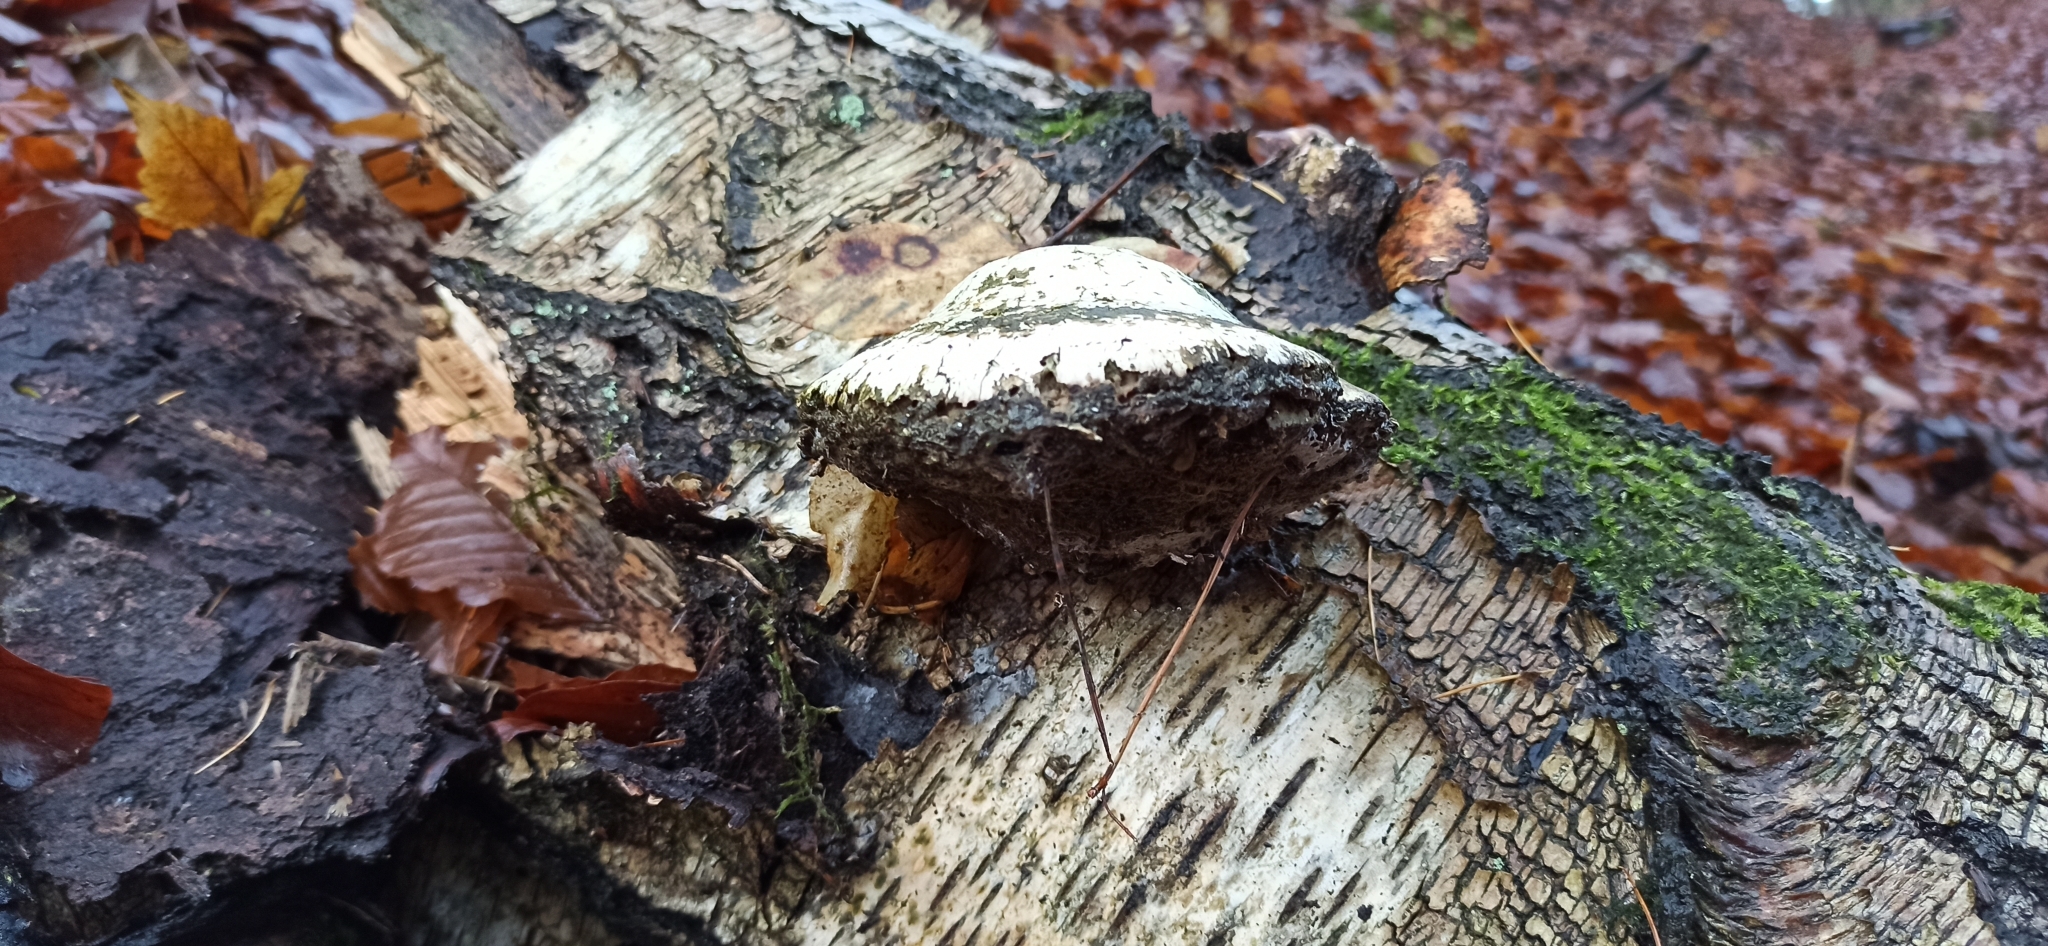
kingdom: Fungi
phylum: Basidiomycota
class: Agaricomycetes
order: Polyporales
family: Fomitopsidaceae
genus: Fomitopsis
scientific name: Fomitopsis betulina
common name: Birch polypore
